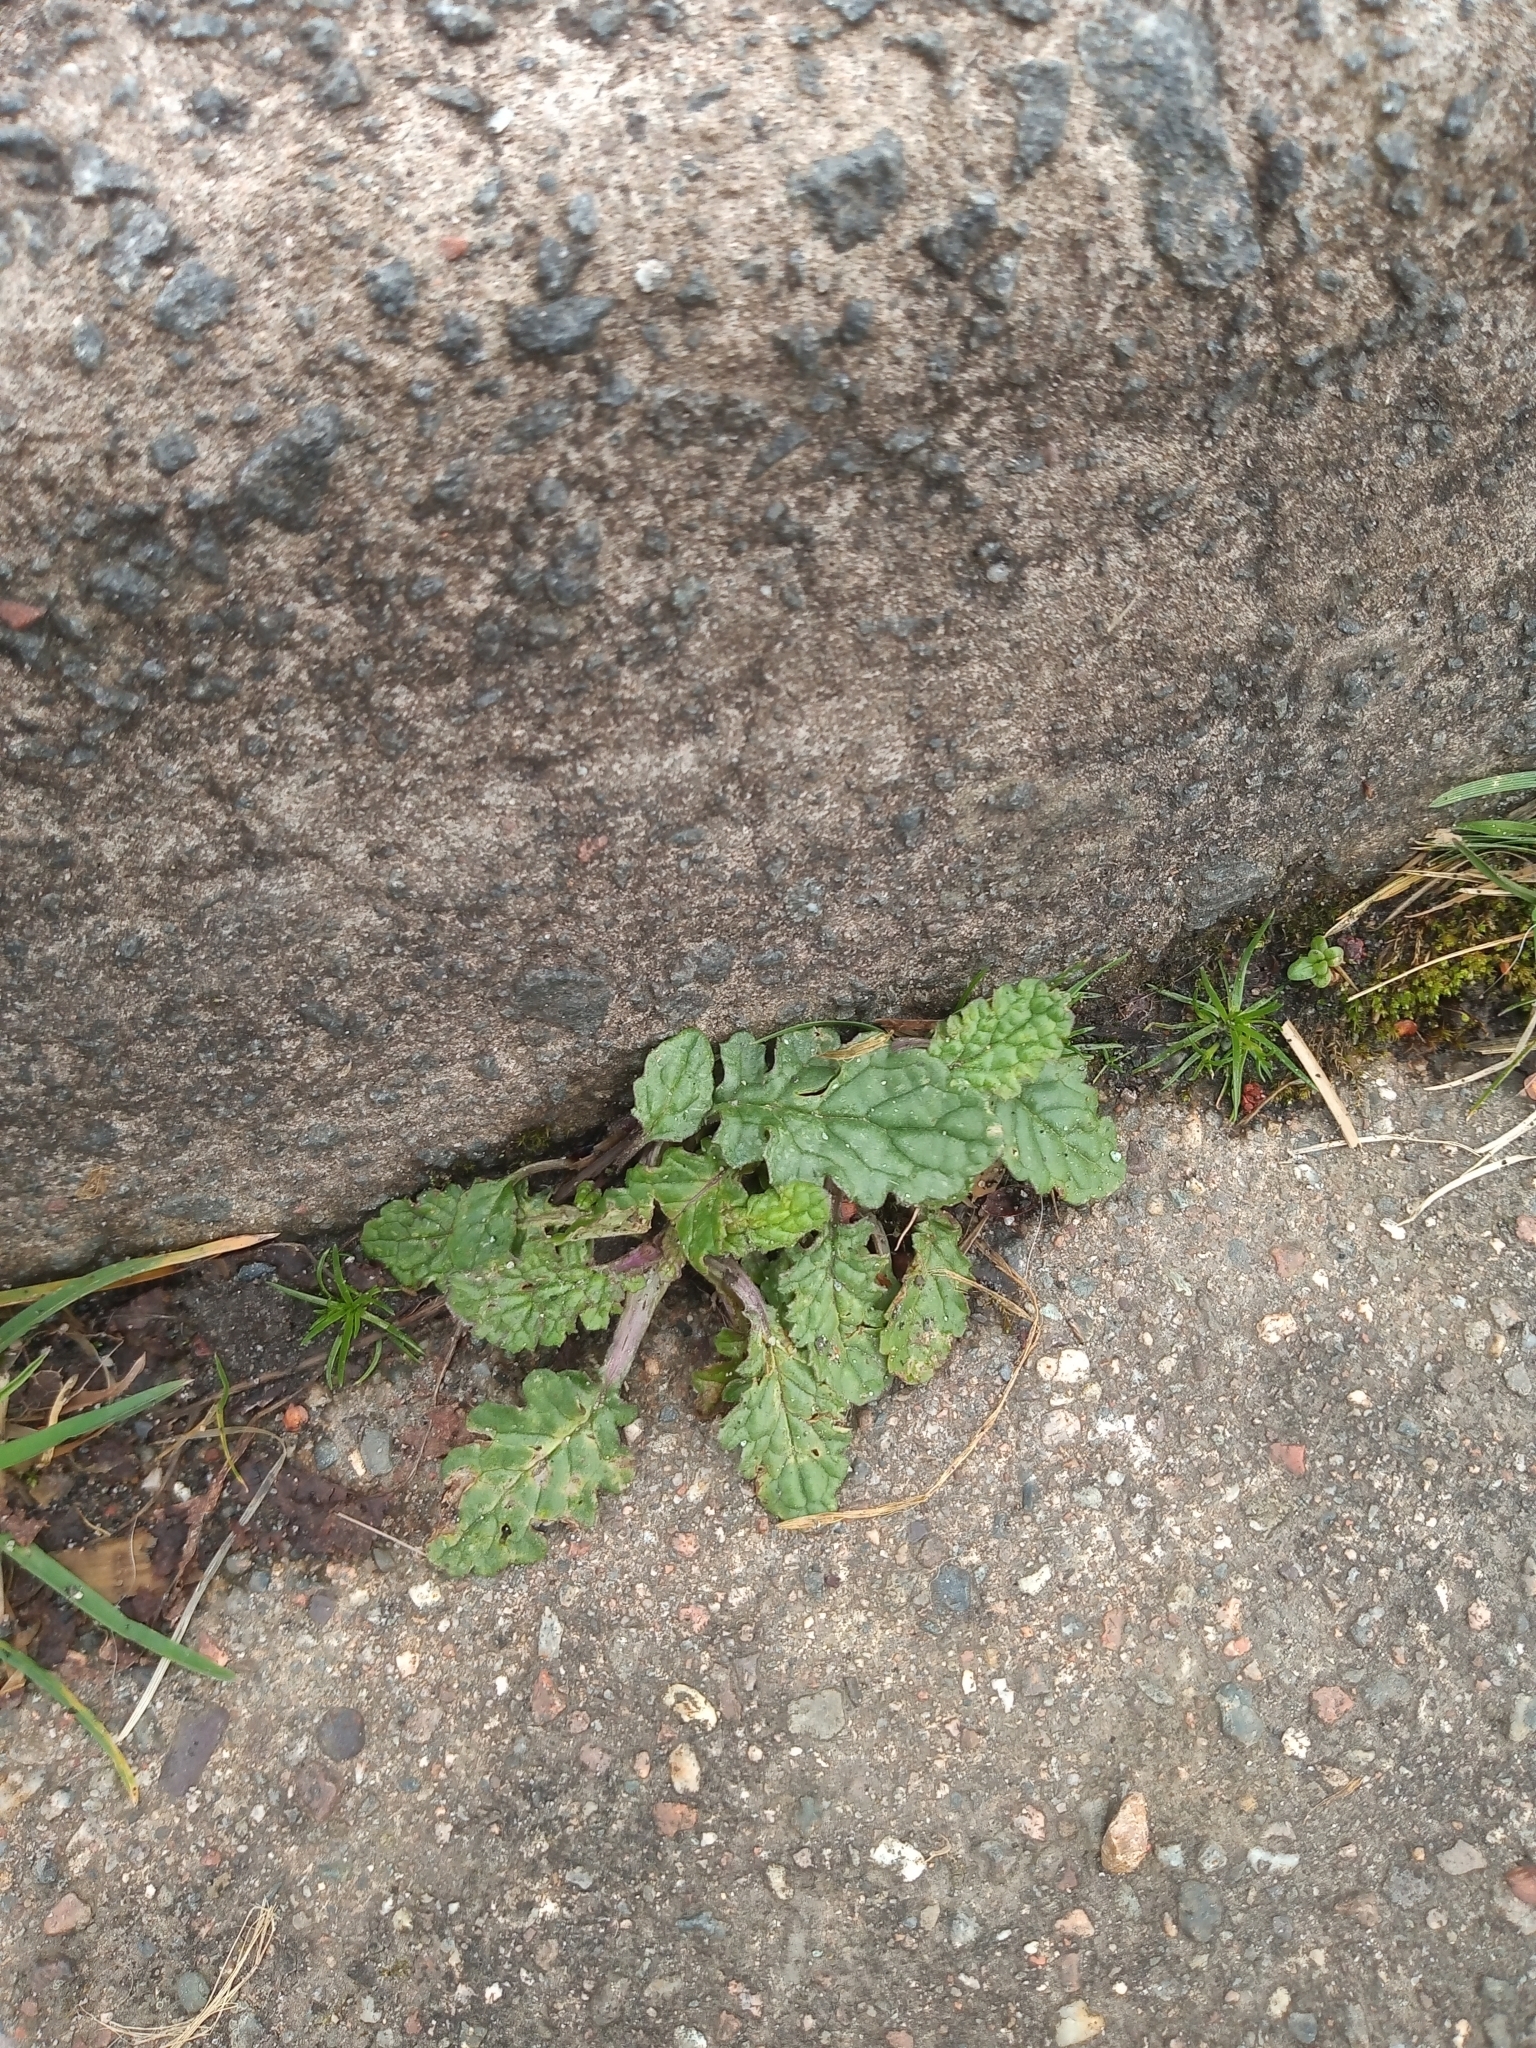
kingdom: Plantae
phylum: Tracheophyta
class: Magnoliopsida
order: Asterales
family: Asteraceae
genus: Jacobaea
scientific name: Jacobaea vulgaris
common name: Stinking willie
